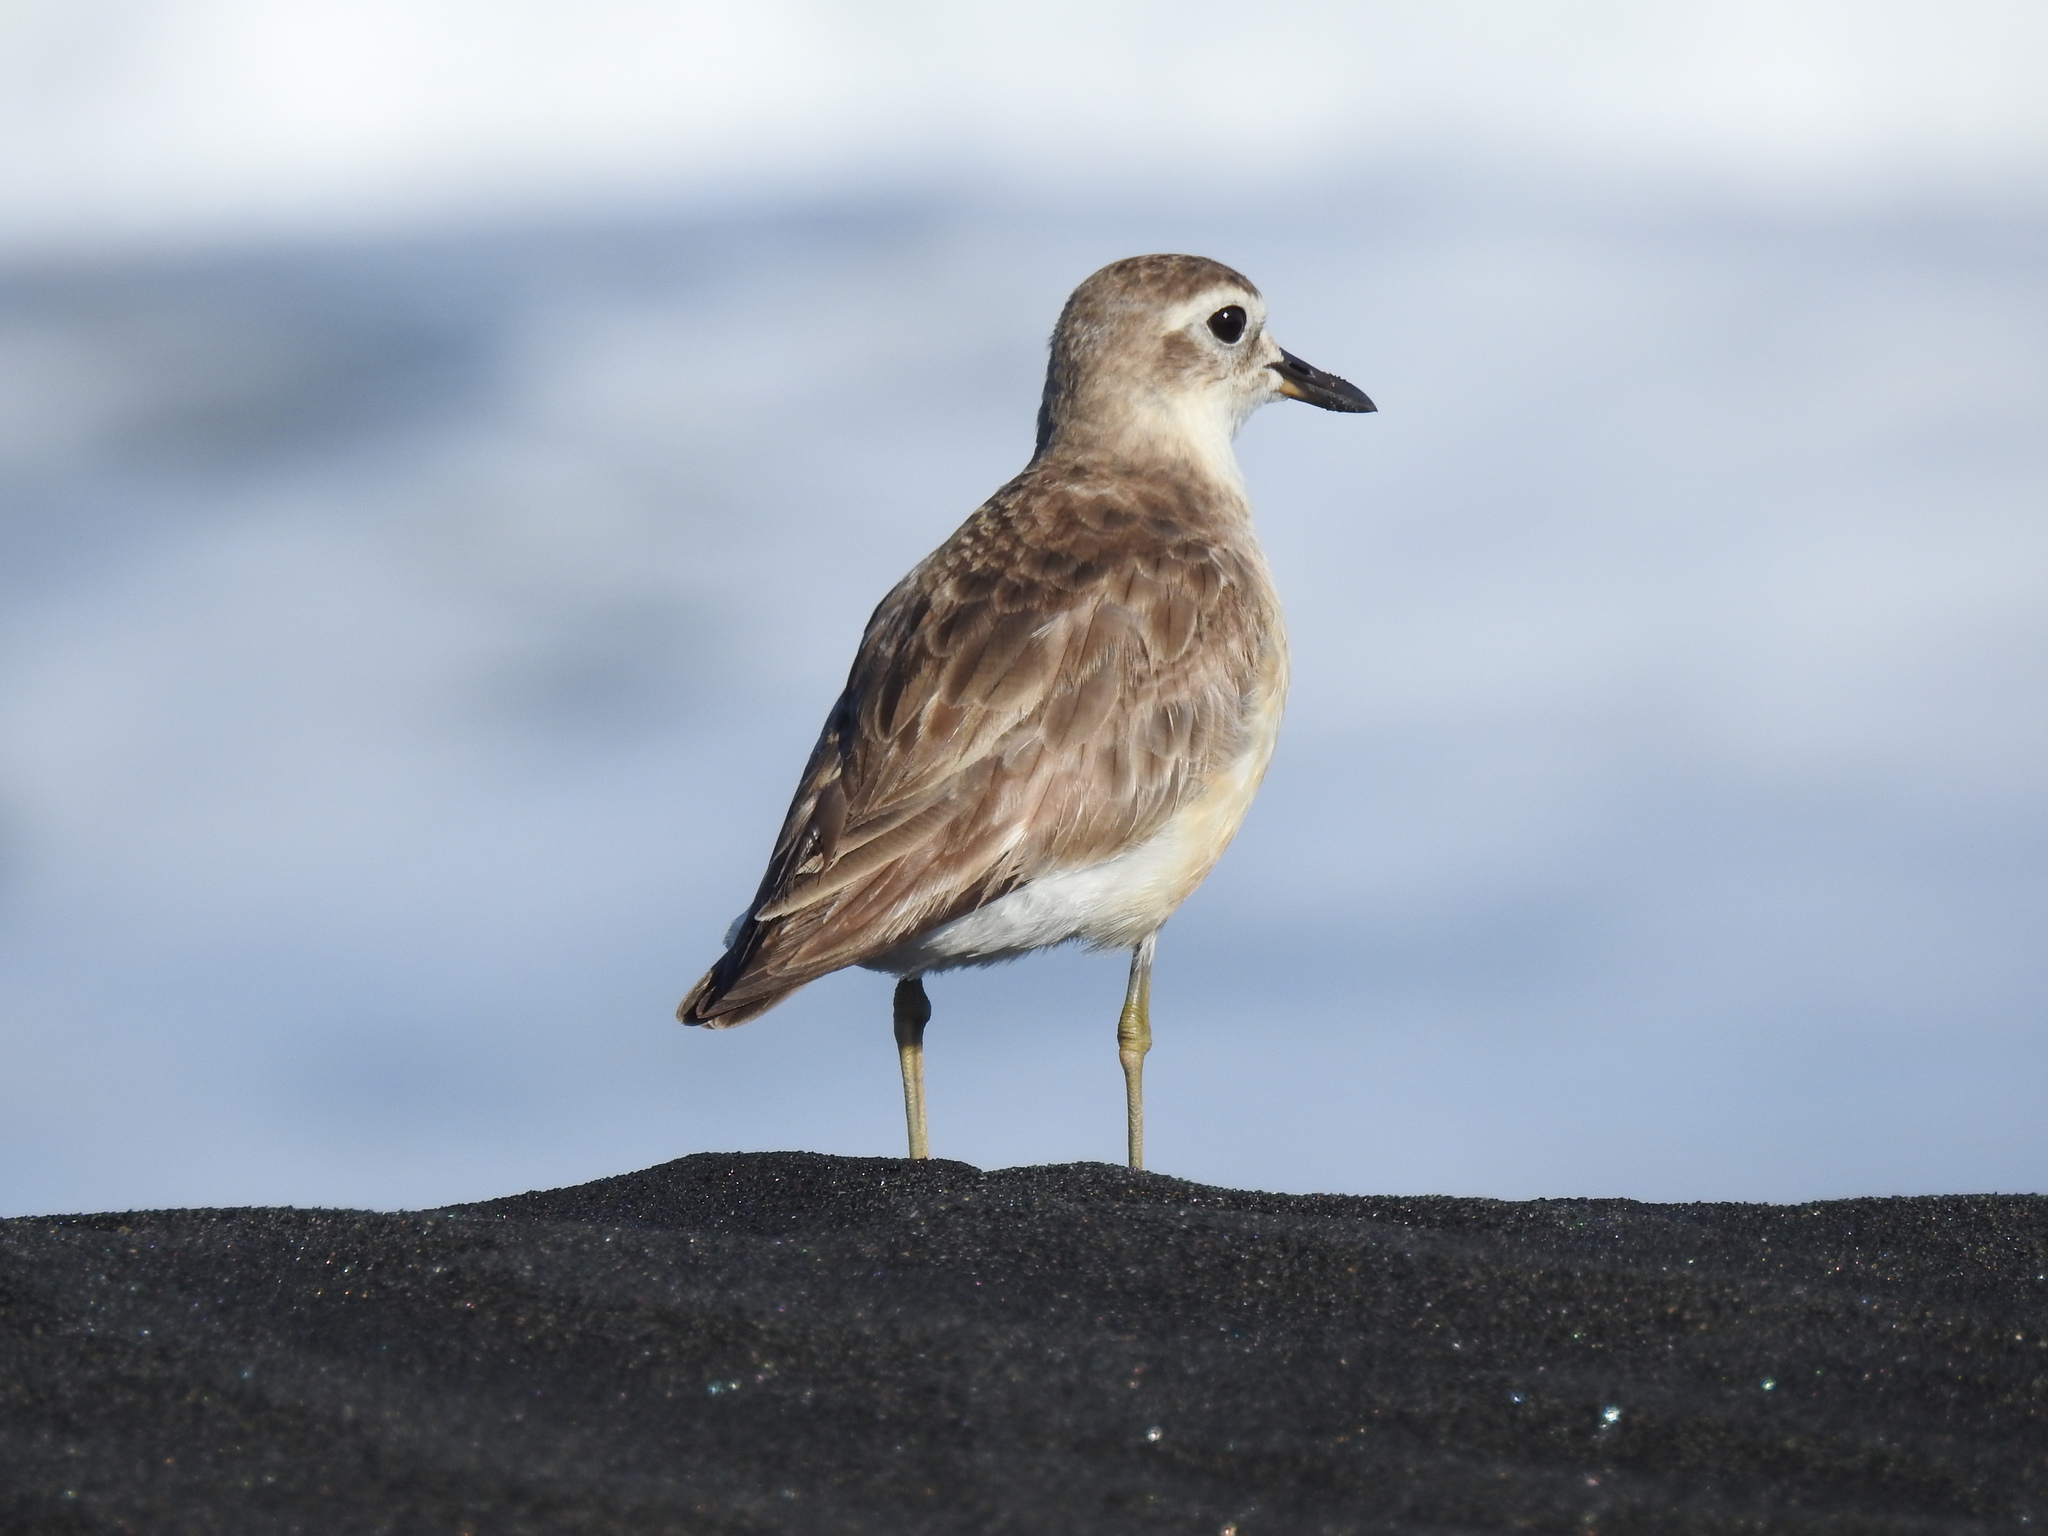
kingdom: Animalia
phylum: Chordata
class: Aves
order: Charadriiformes
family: Charadriidae
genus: Anarhynchus
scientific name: Anarhynchus
